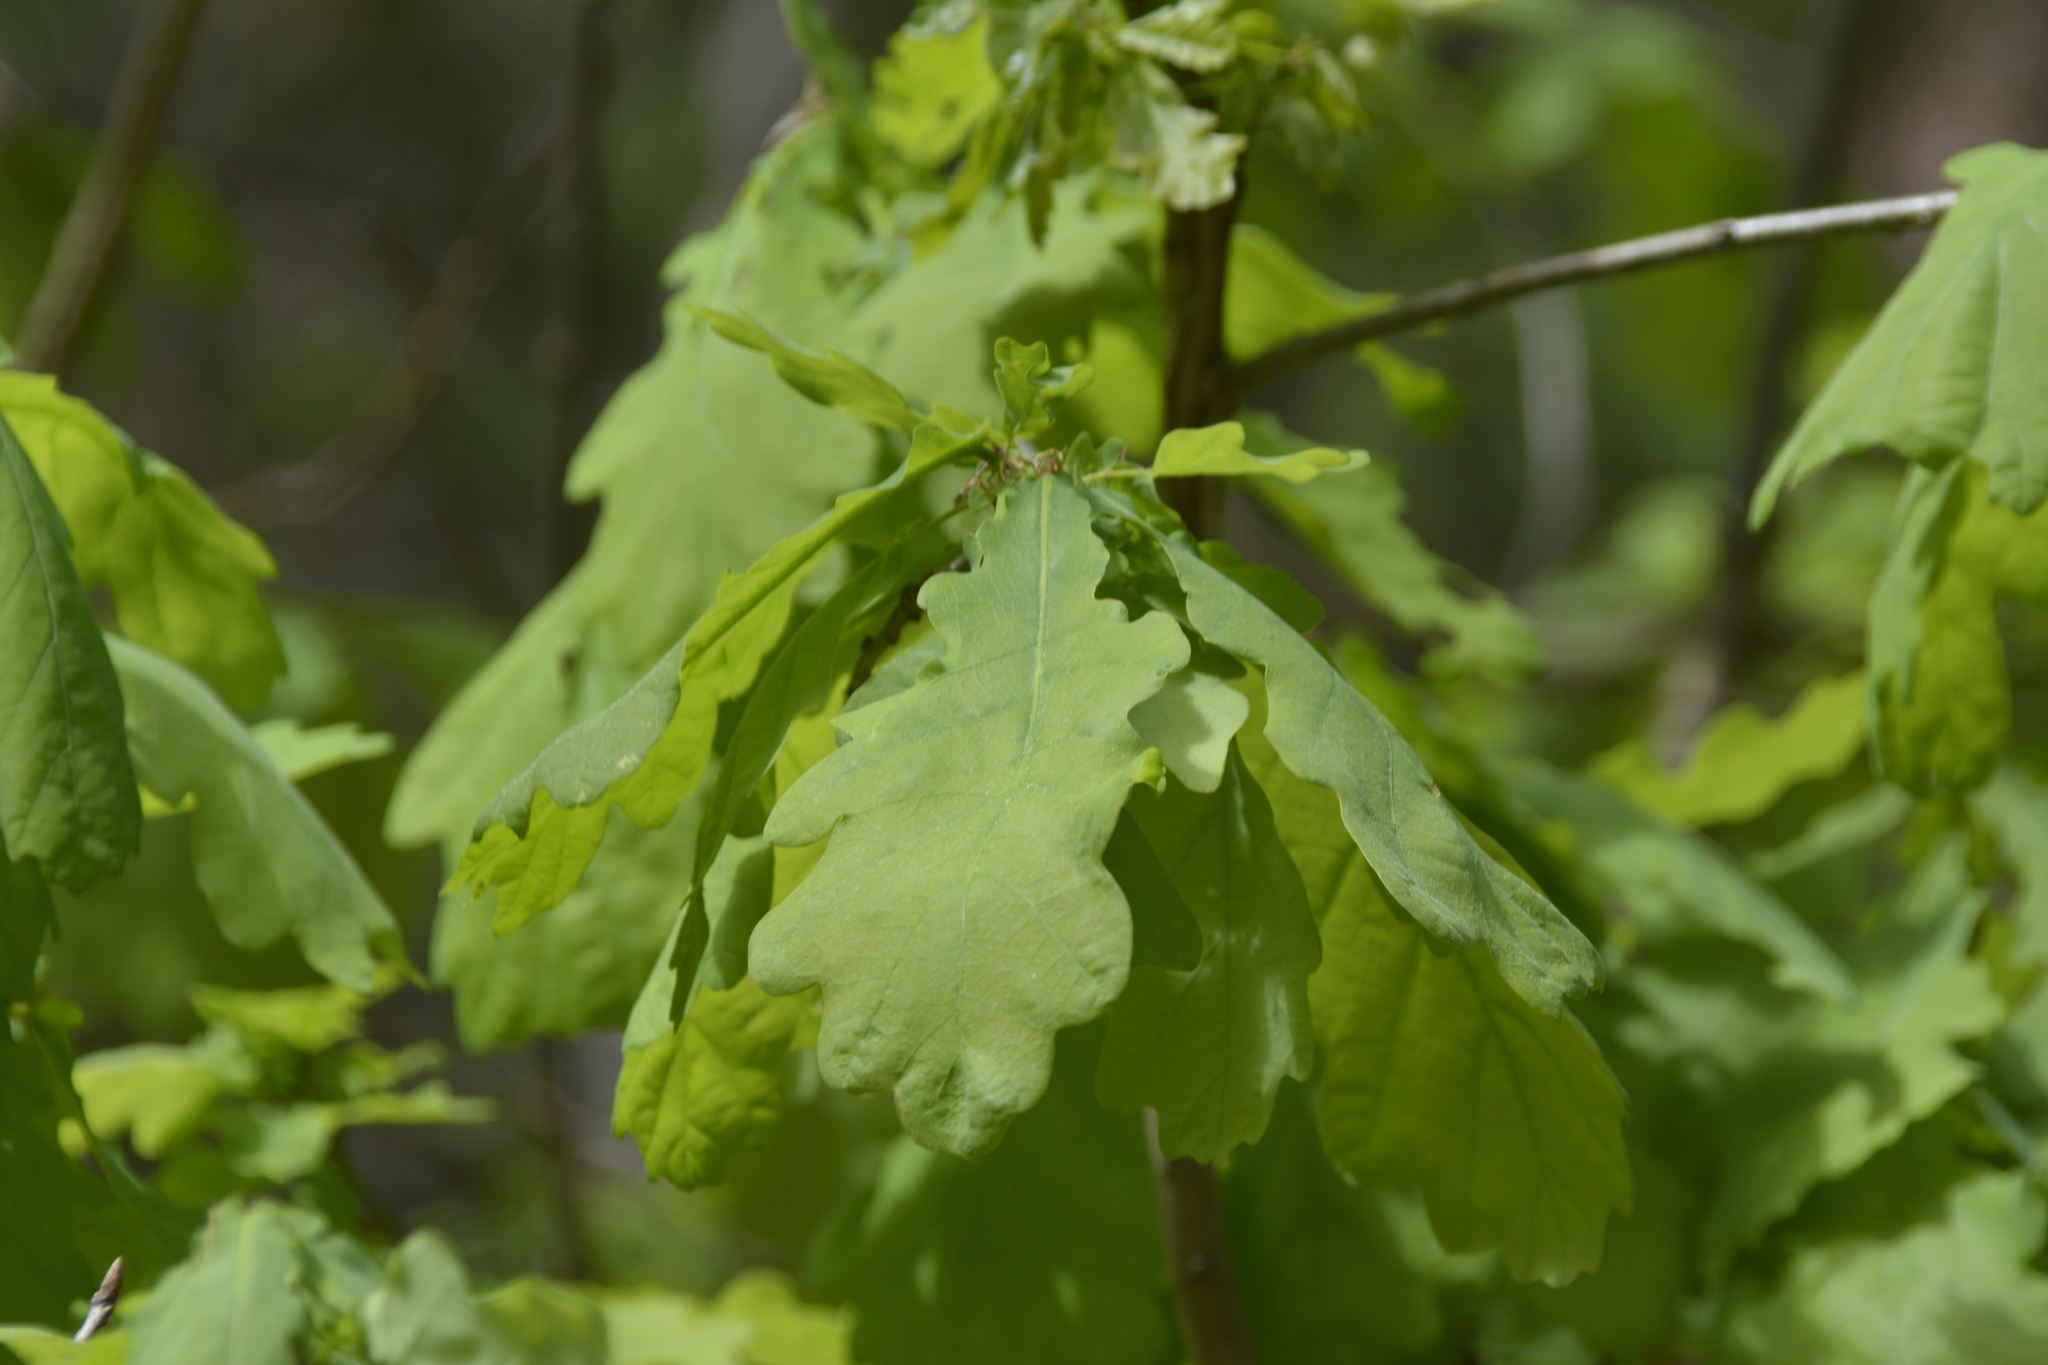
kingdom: Plantae
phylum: Tracheophyta
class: Magnoliopsida
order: Fagales
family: Fagaceae
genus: Quercus
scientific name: Quercus robur
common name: Pedunculate oak
